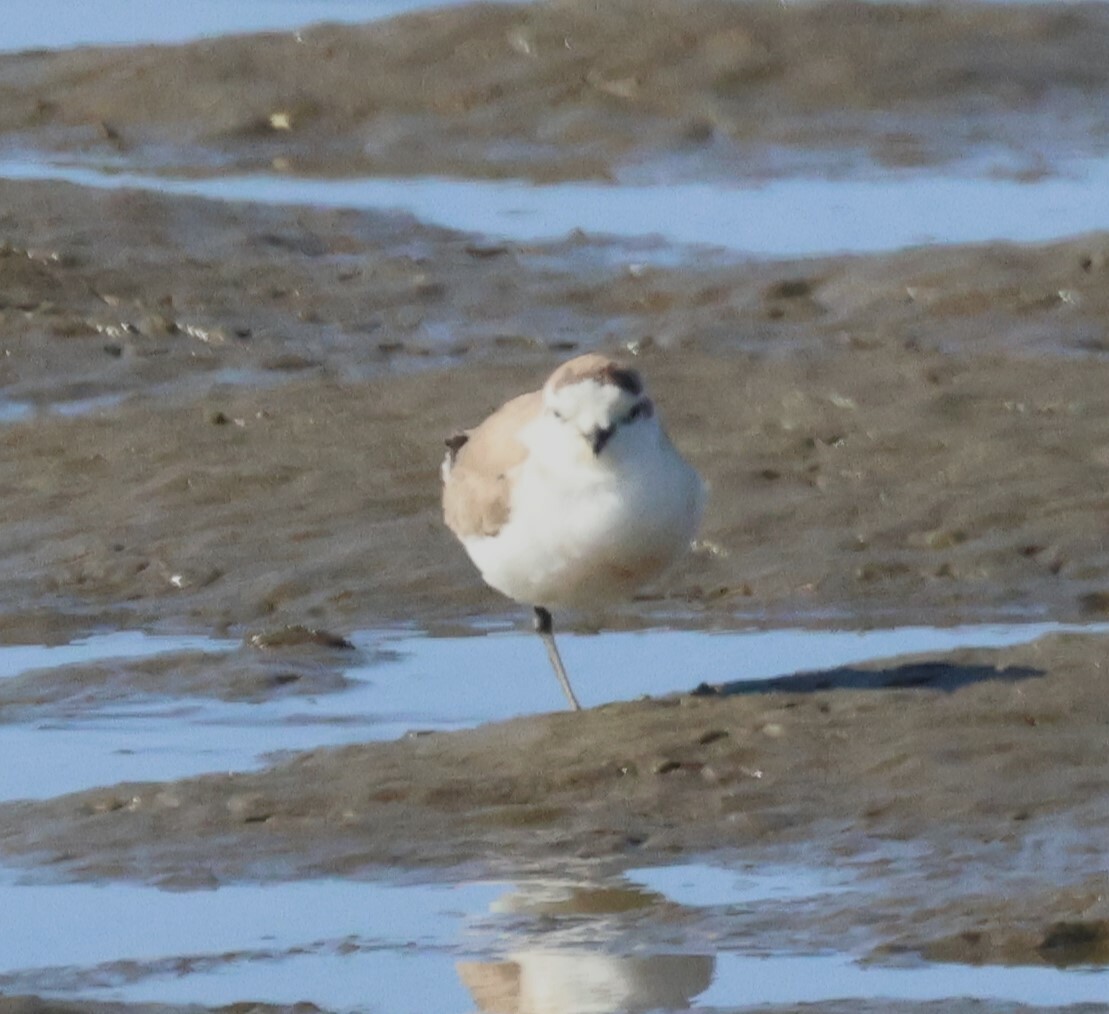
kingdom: Animalia
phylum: Chordata
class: Aves
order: Charadriiformes
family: Charadriidae
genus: Anarhynchus
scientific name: Anarhynchus
